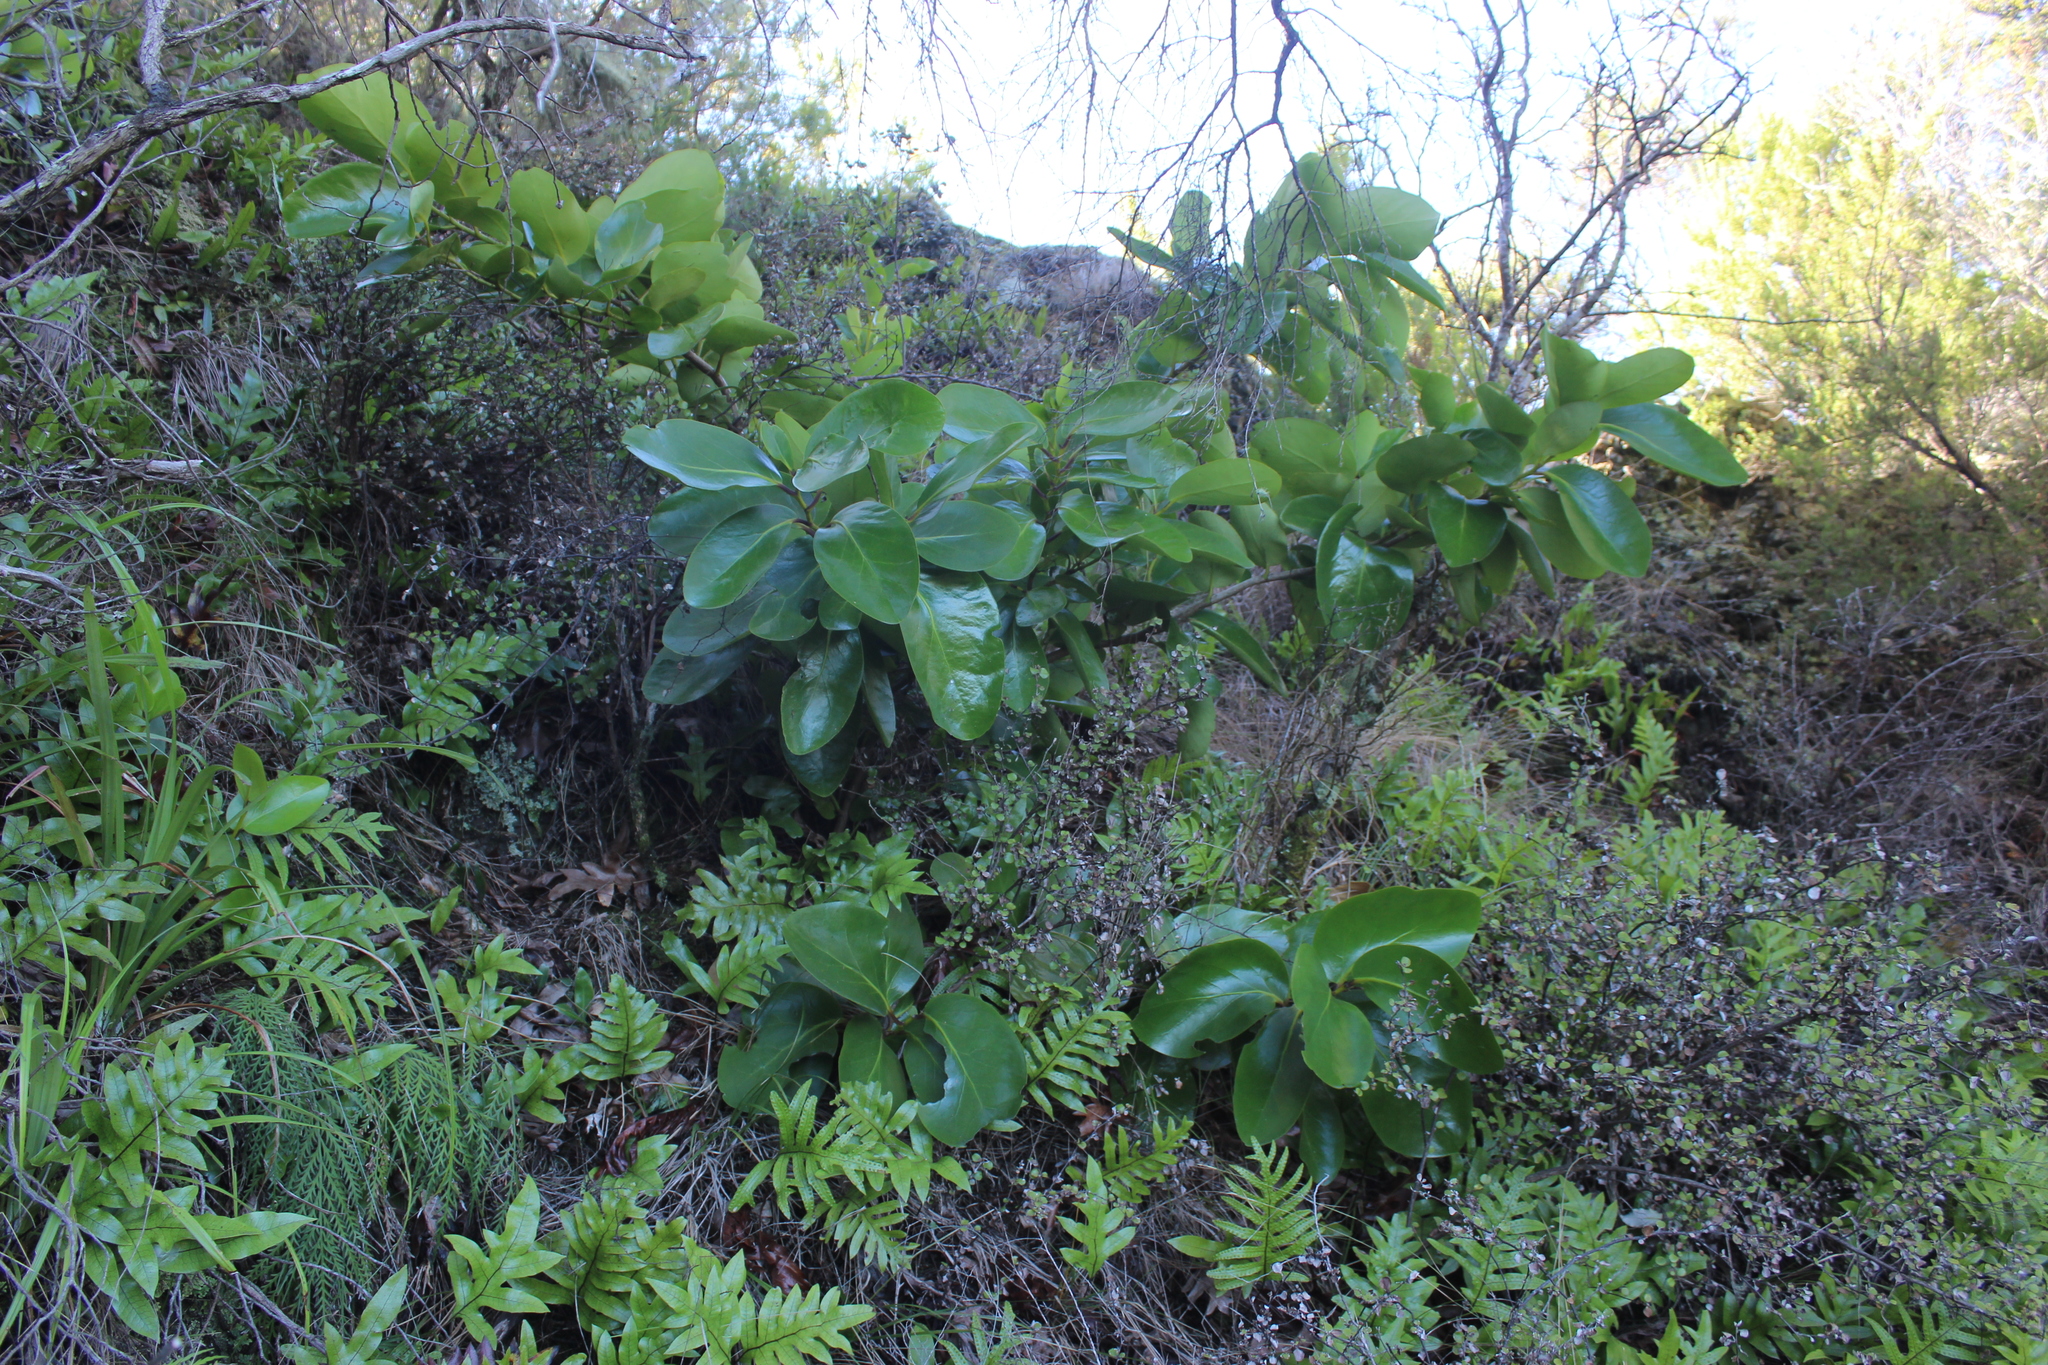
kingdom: Plantae
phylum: Tracheophyta
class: Magnoliopsida
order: Apiales
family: Griseliniaceae
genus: Griselinia
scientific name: Griselinia lucida
